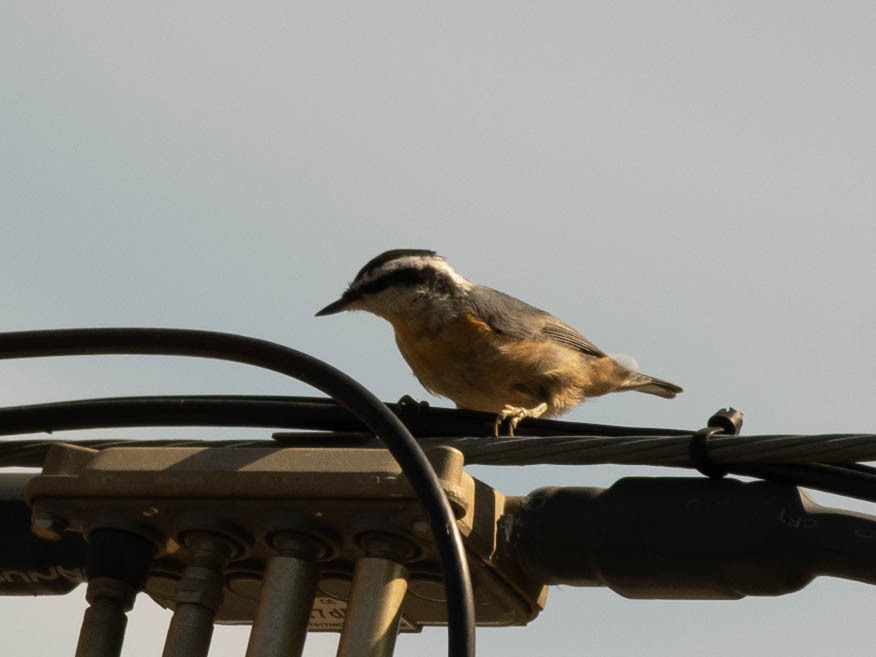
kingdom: Animalia
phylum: Chordata
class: Aves
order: Passeriformes
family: Sittidae
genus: Sitta
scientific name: Sitta canadensis
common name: Red-breasted nuthatch
